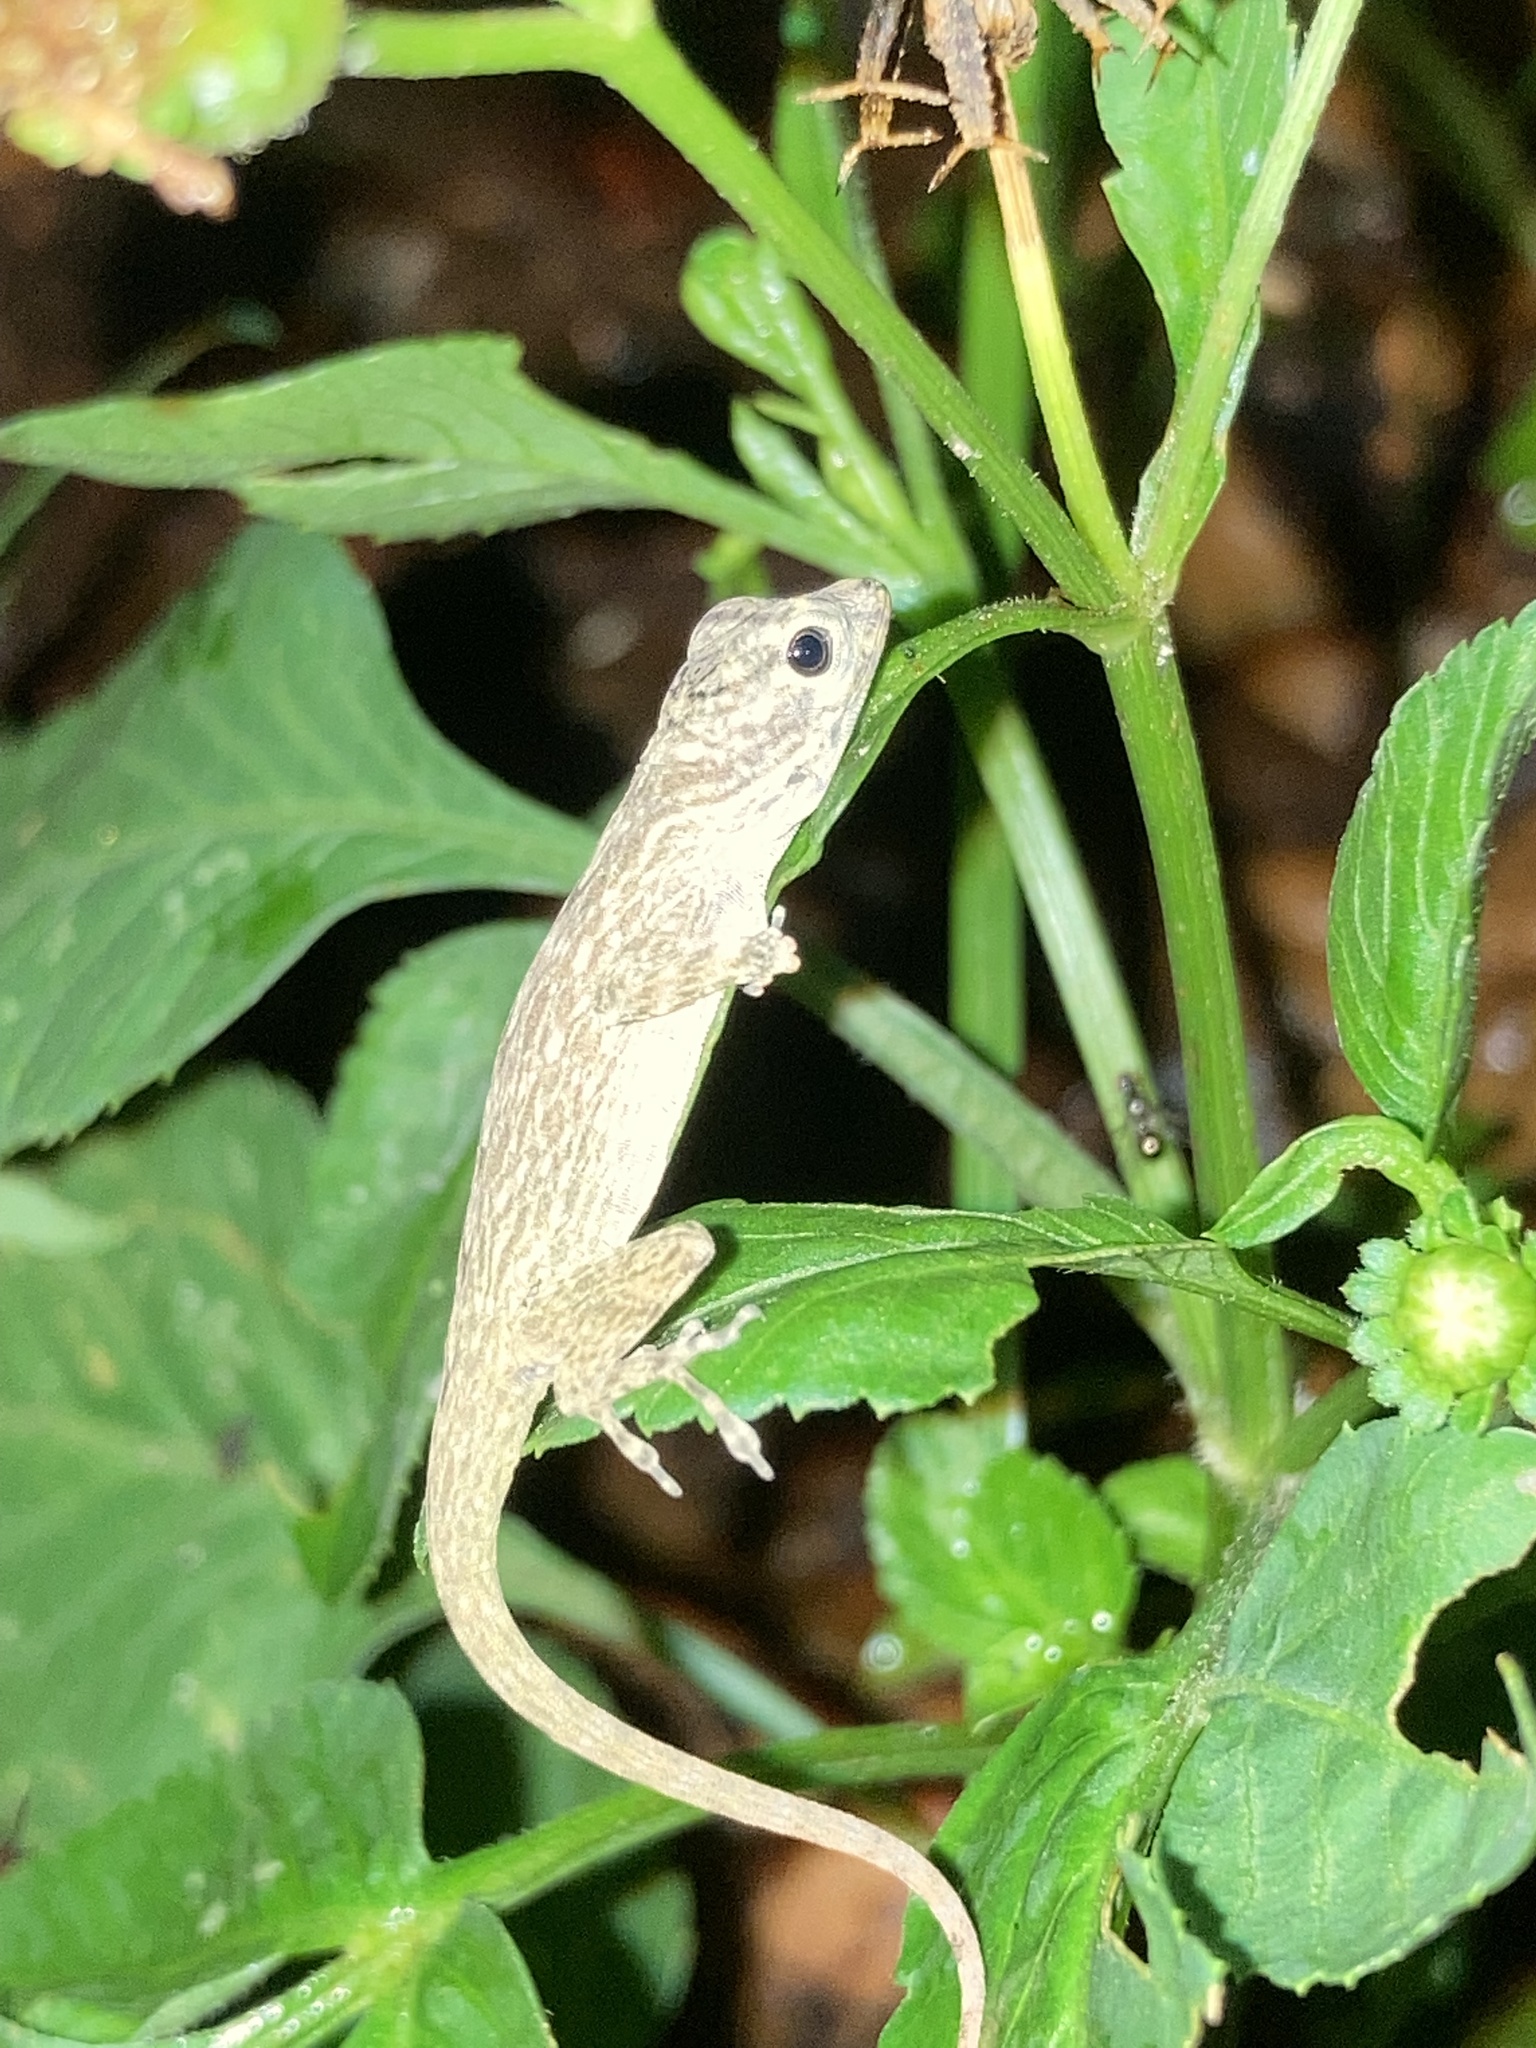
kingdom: Animalia
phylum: Chordata
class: Squamata
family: Dactyloidae
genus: Anolis
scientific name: Anolis distichus
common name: Bark anole
